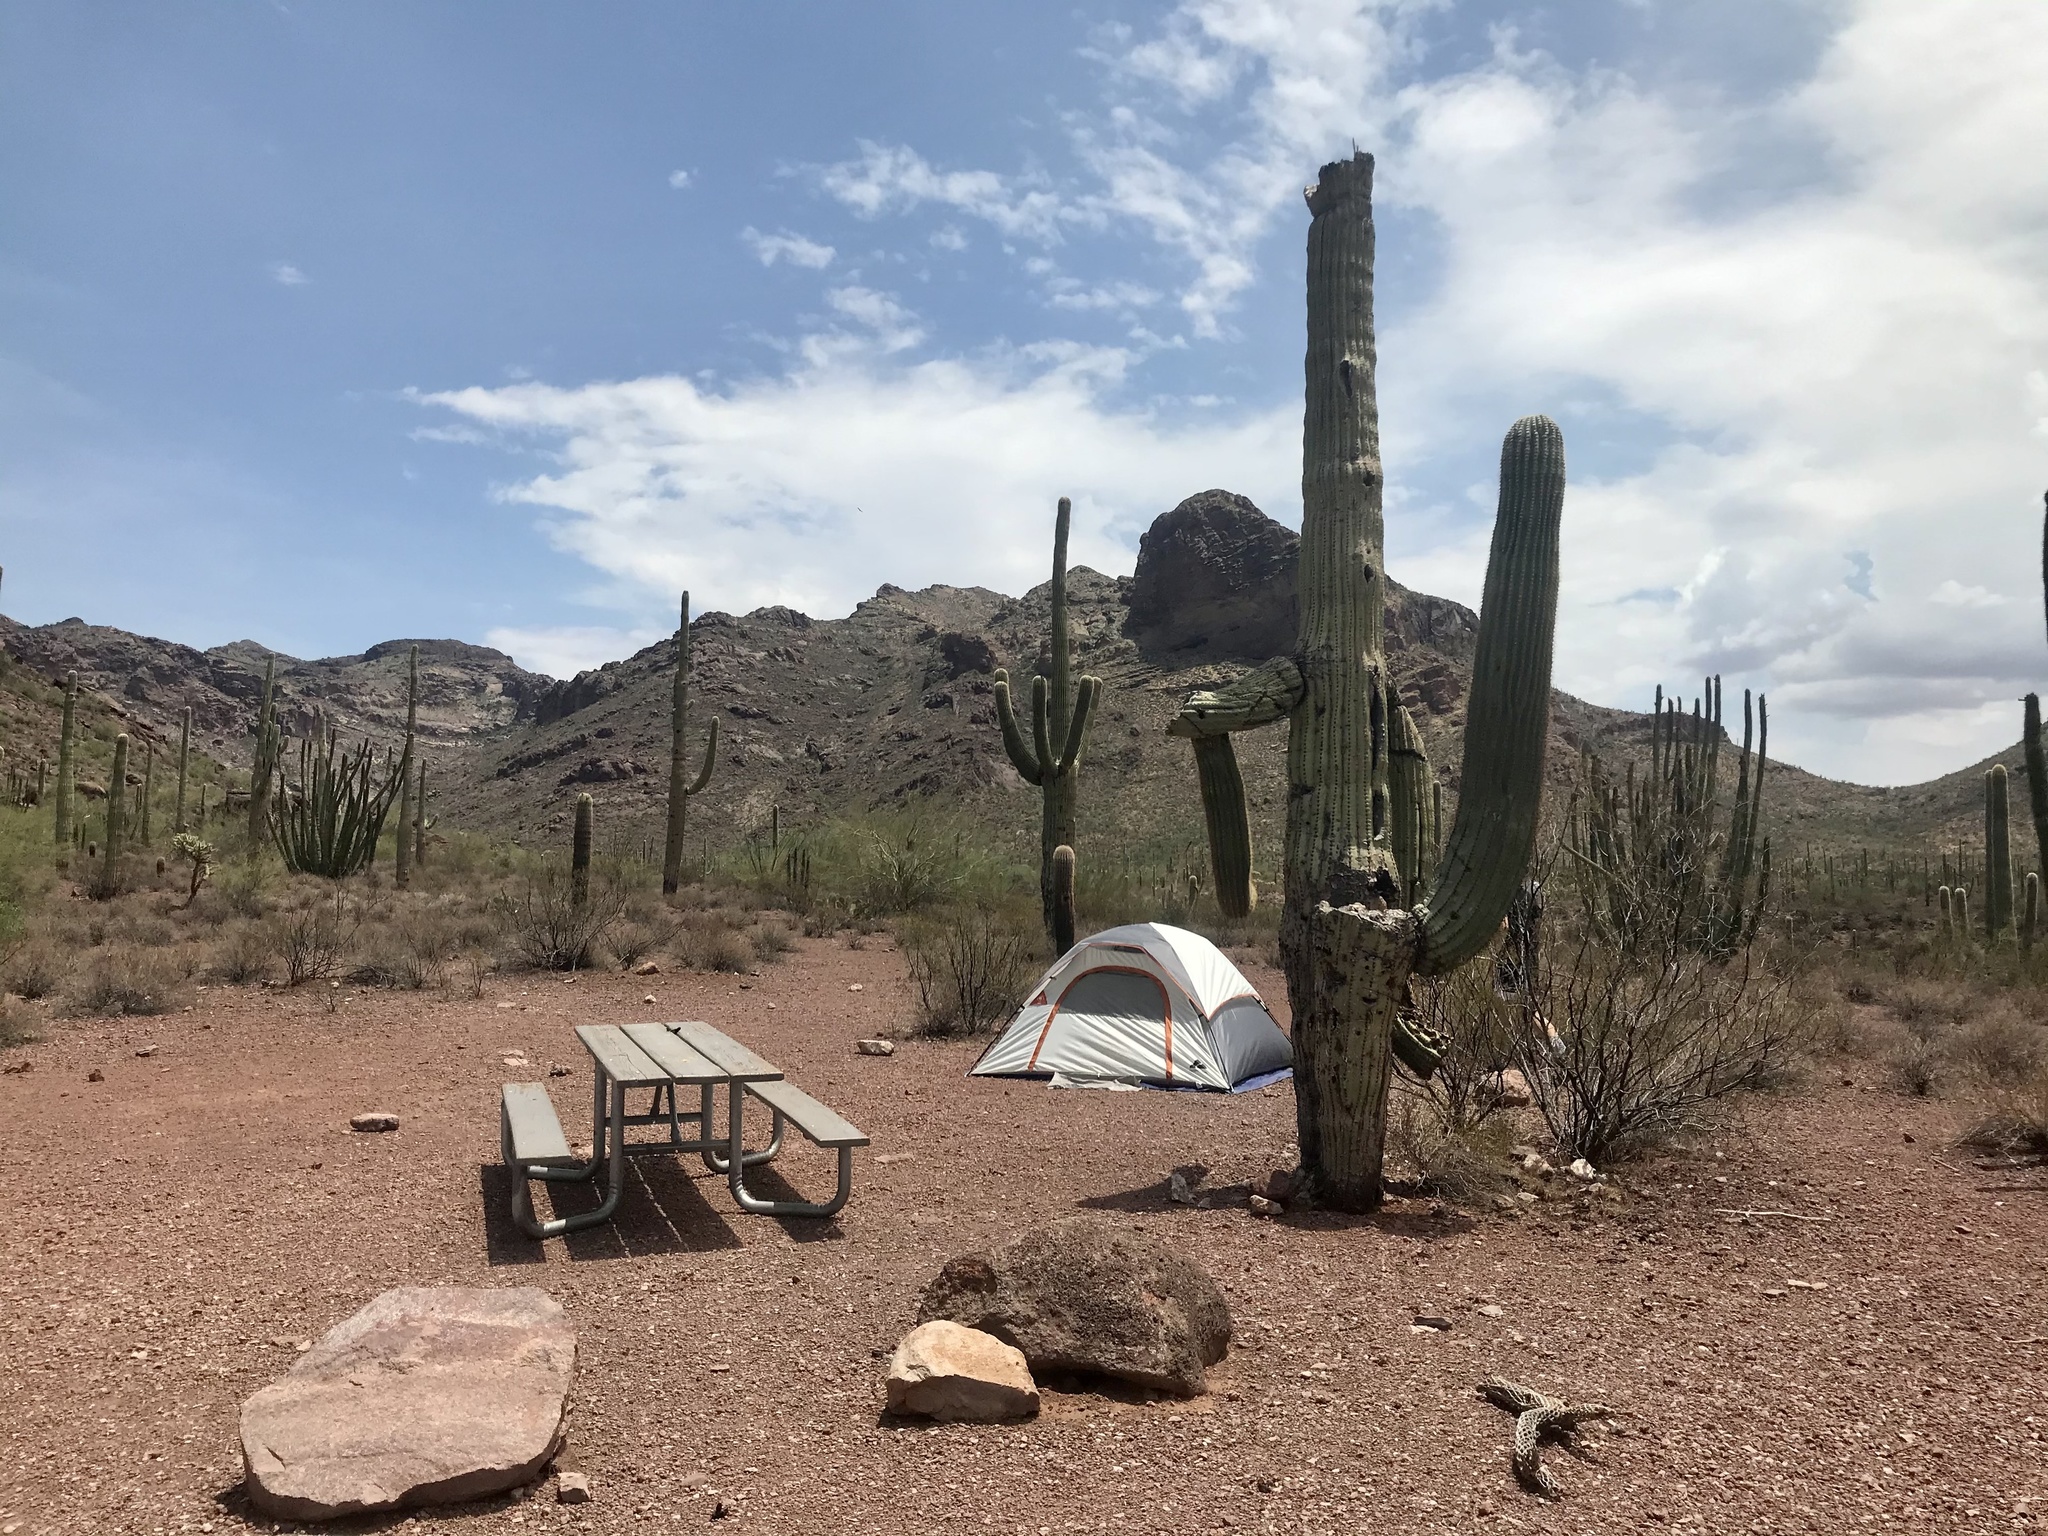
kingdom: Plantae
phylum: Tracheophyta
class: Magnoliopsida
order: Caryophyllales
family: Cactaceae
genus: Carnegiea
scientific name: Carnegiea gigantea
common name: Saguaro
